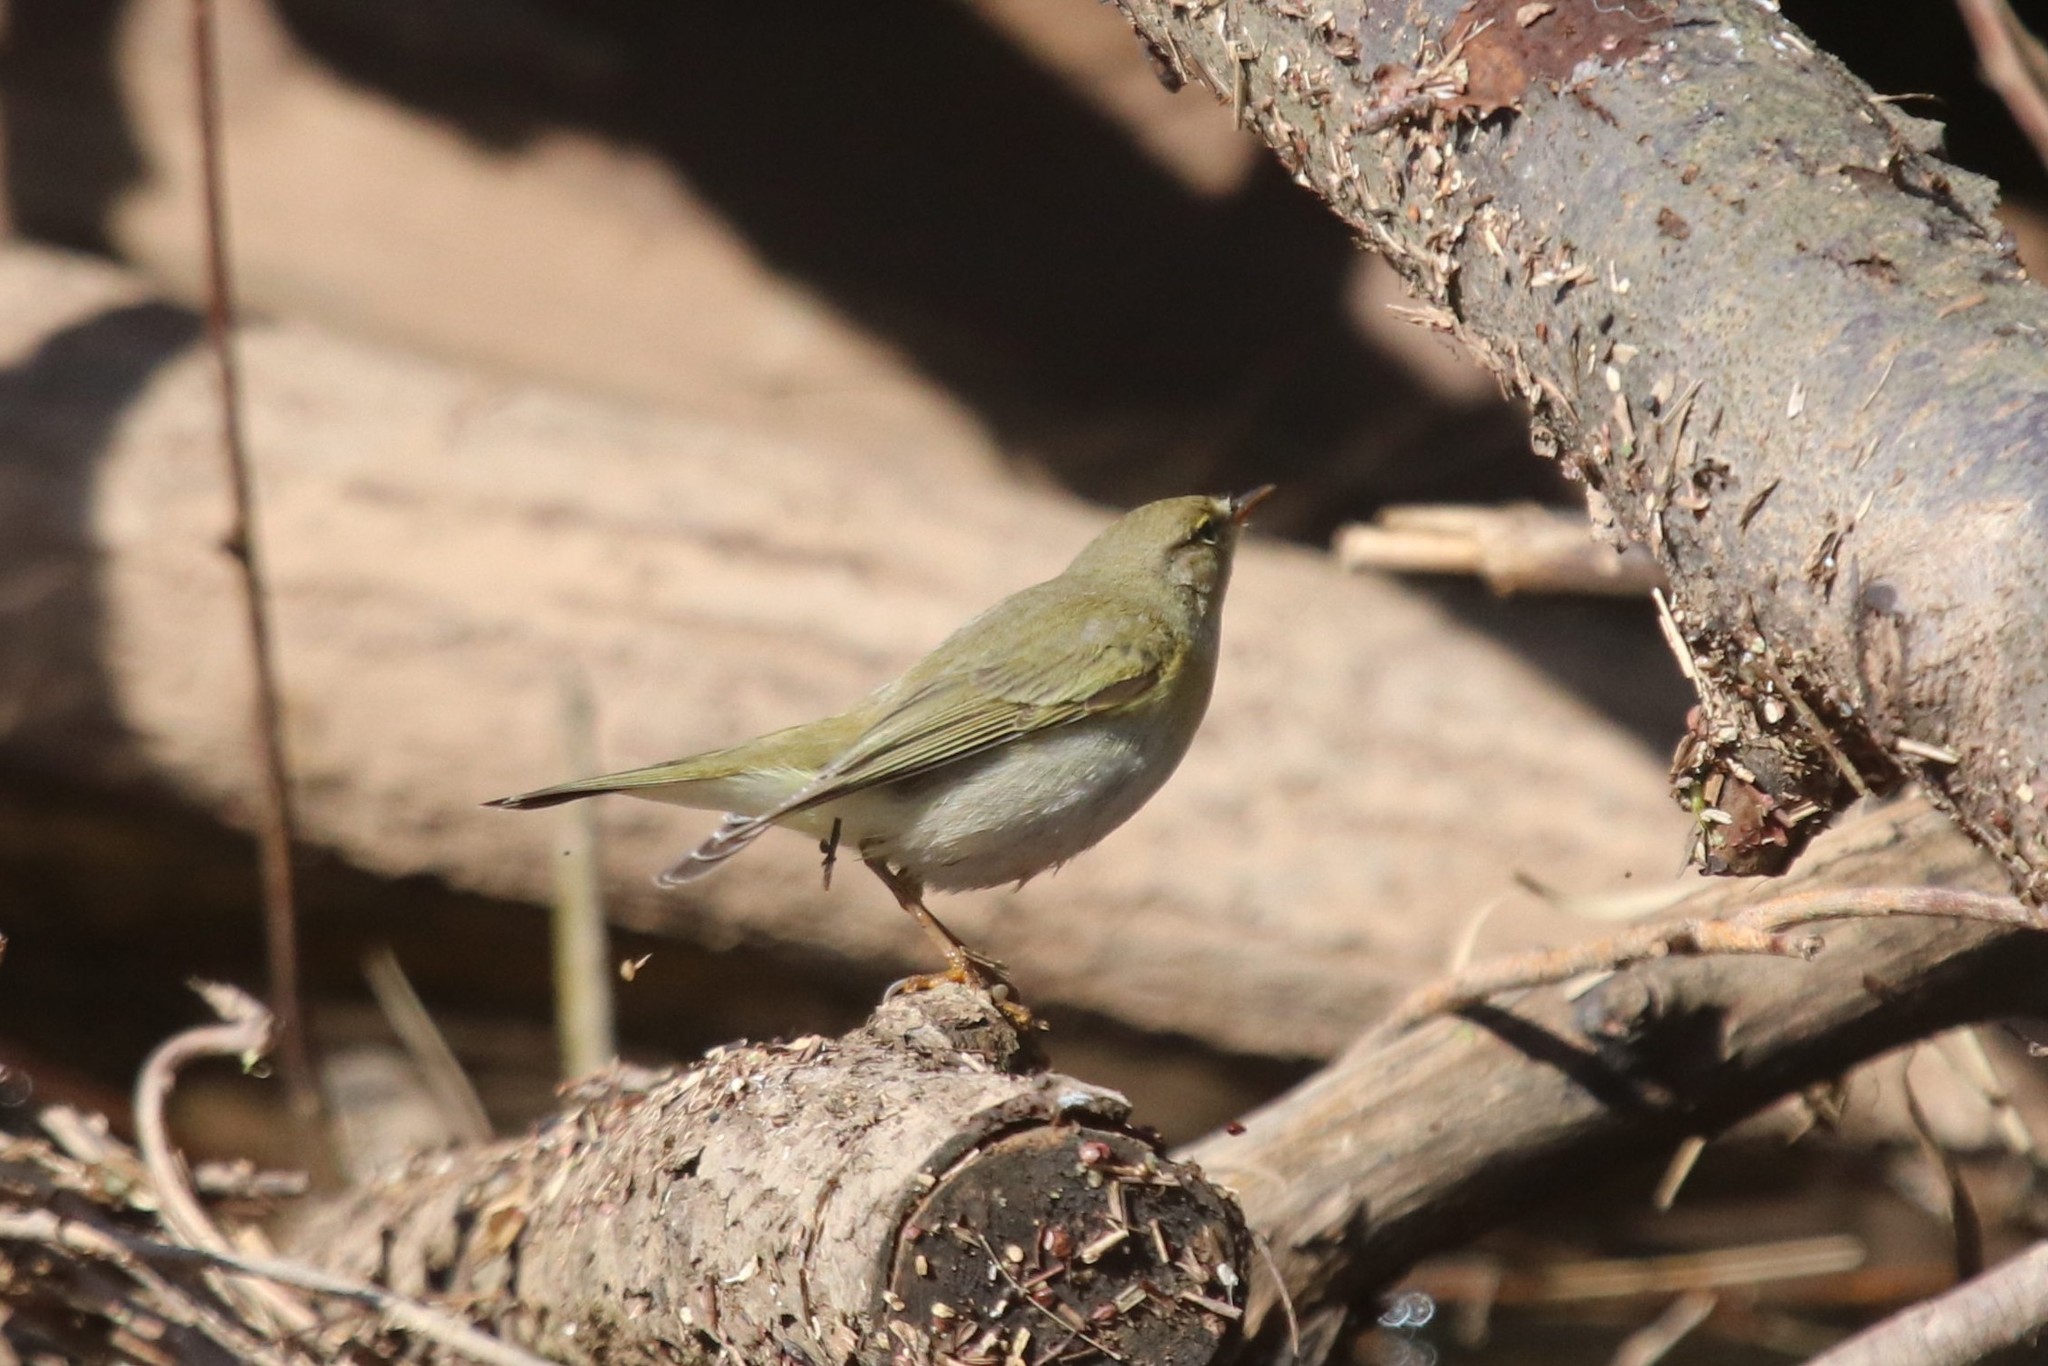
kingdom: Animalia
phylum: Chordata
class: Aves
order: Passeriformes
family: Phylloscopidae
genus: Phylloscopus
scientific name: Phylloscopus trochilus
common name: Willow warbler
